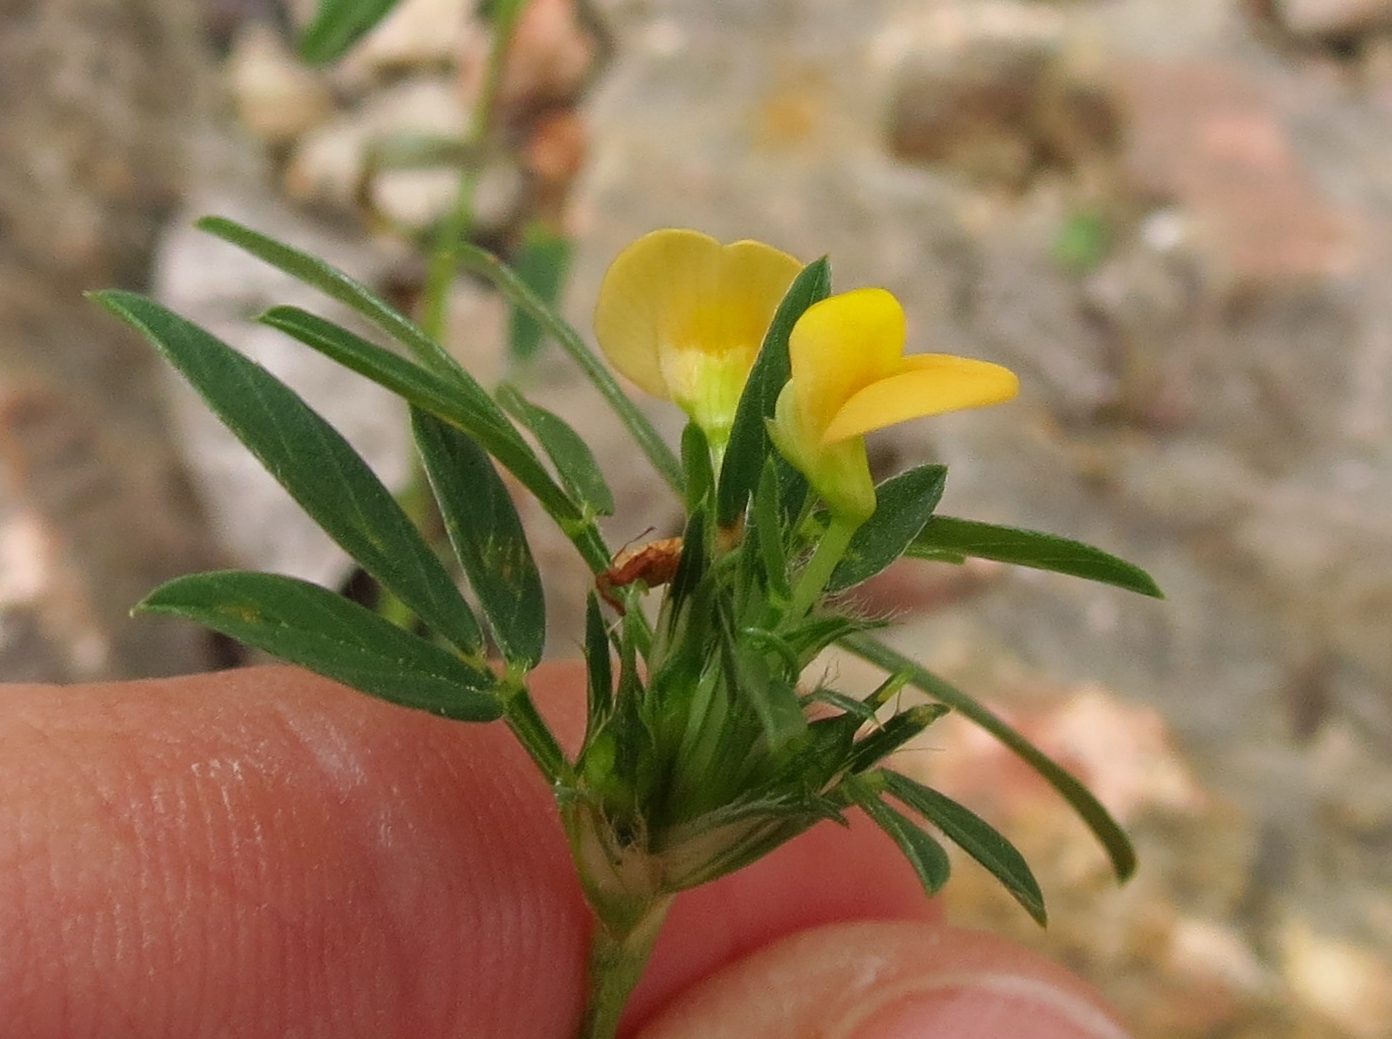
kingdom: Plantae
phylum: Tracheophyta
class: Magnoliopsida
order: Fabales
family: Fabaceae
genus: Stylosanthes
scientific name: Stylosanthes hamata
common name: Cheesytoes
